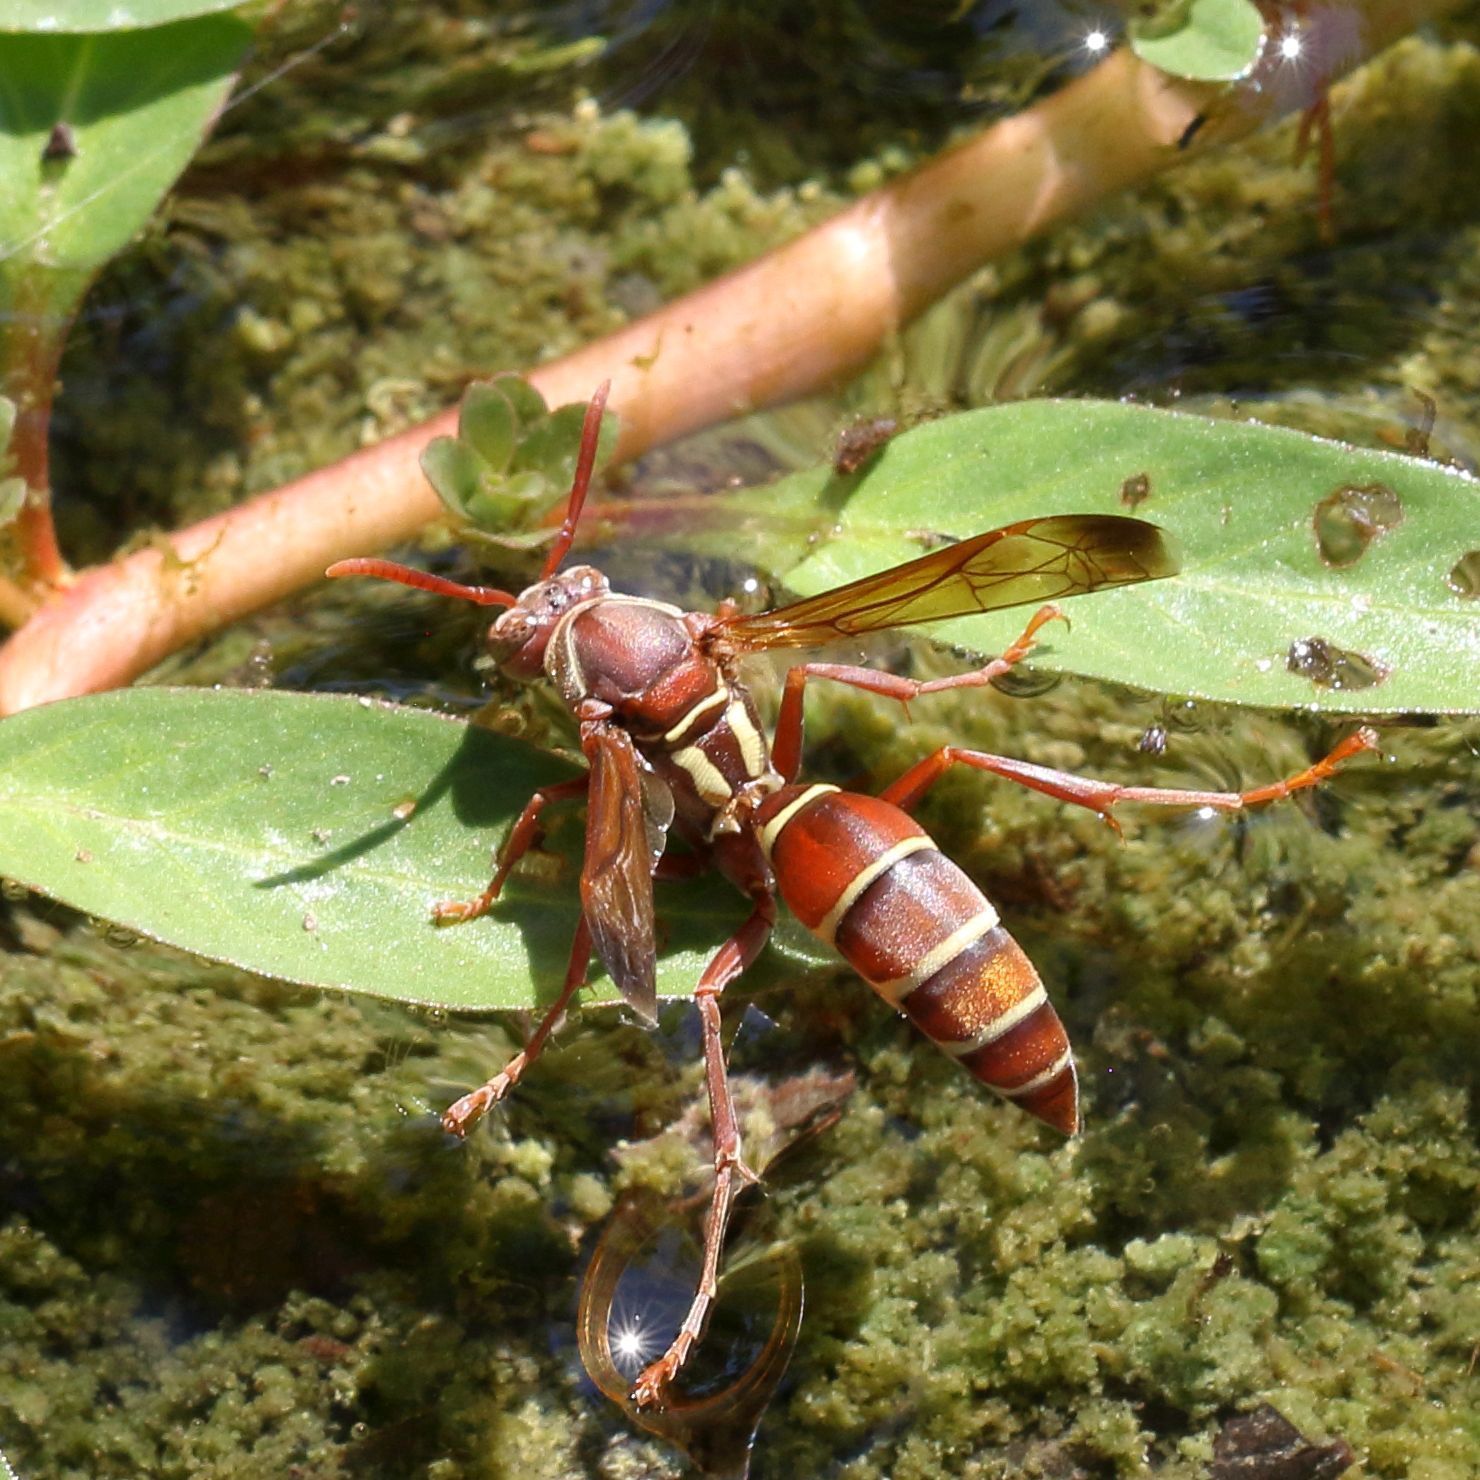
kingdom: Animalia
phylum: Arthropoda
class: Insecta
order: Hymenoptera
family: Eumenidae
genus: Polistes
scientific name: Polistes fastidiosus
